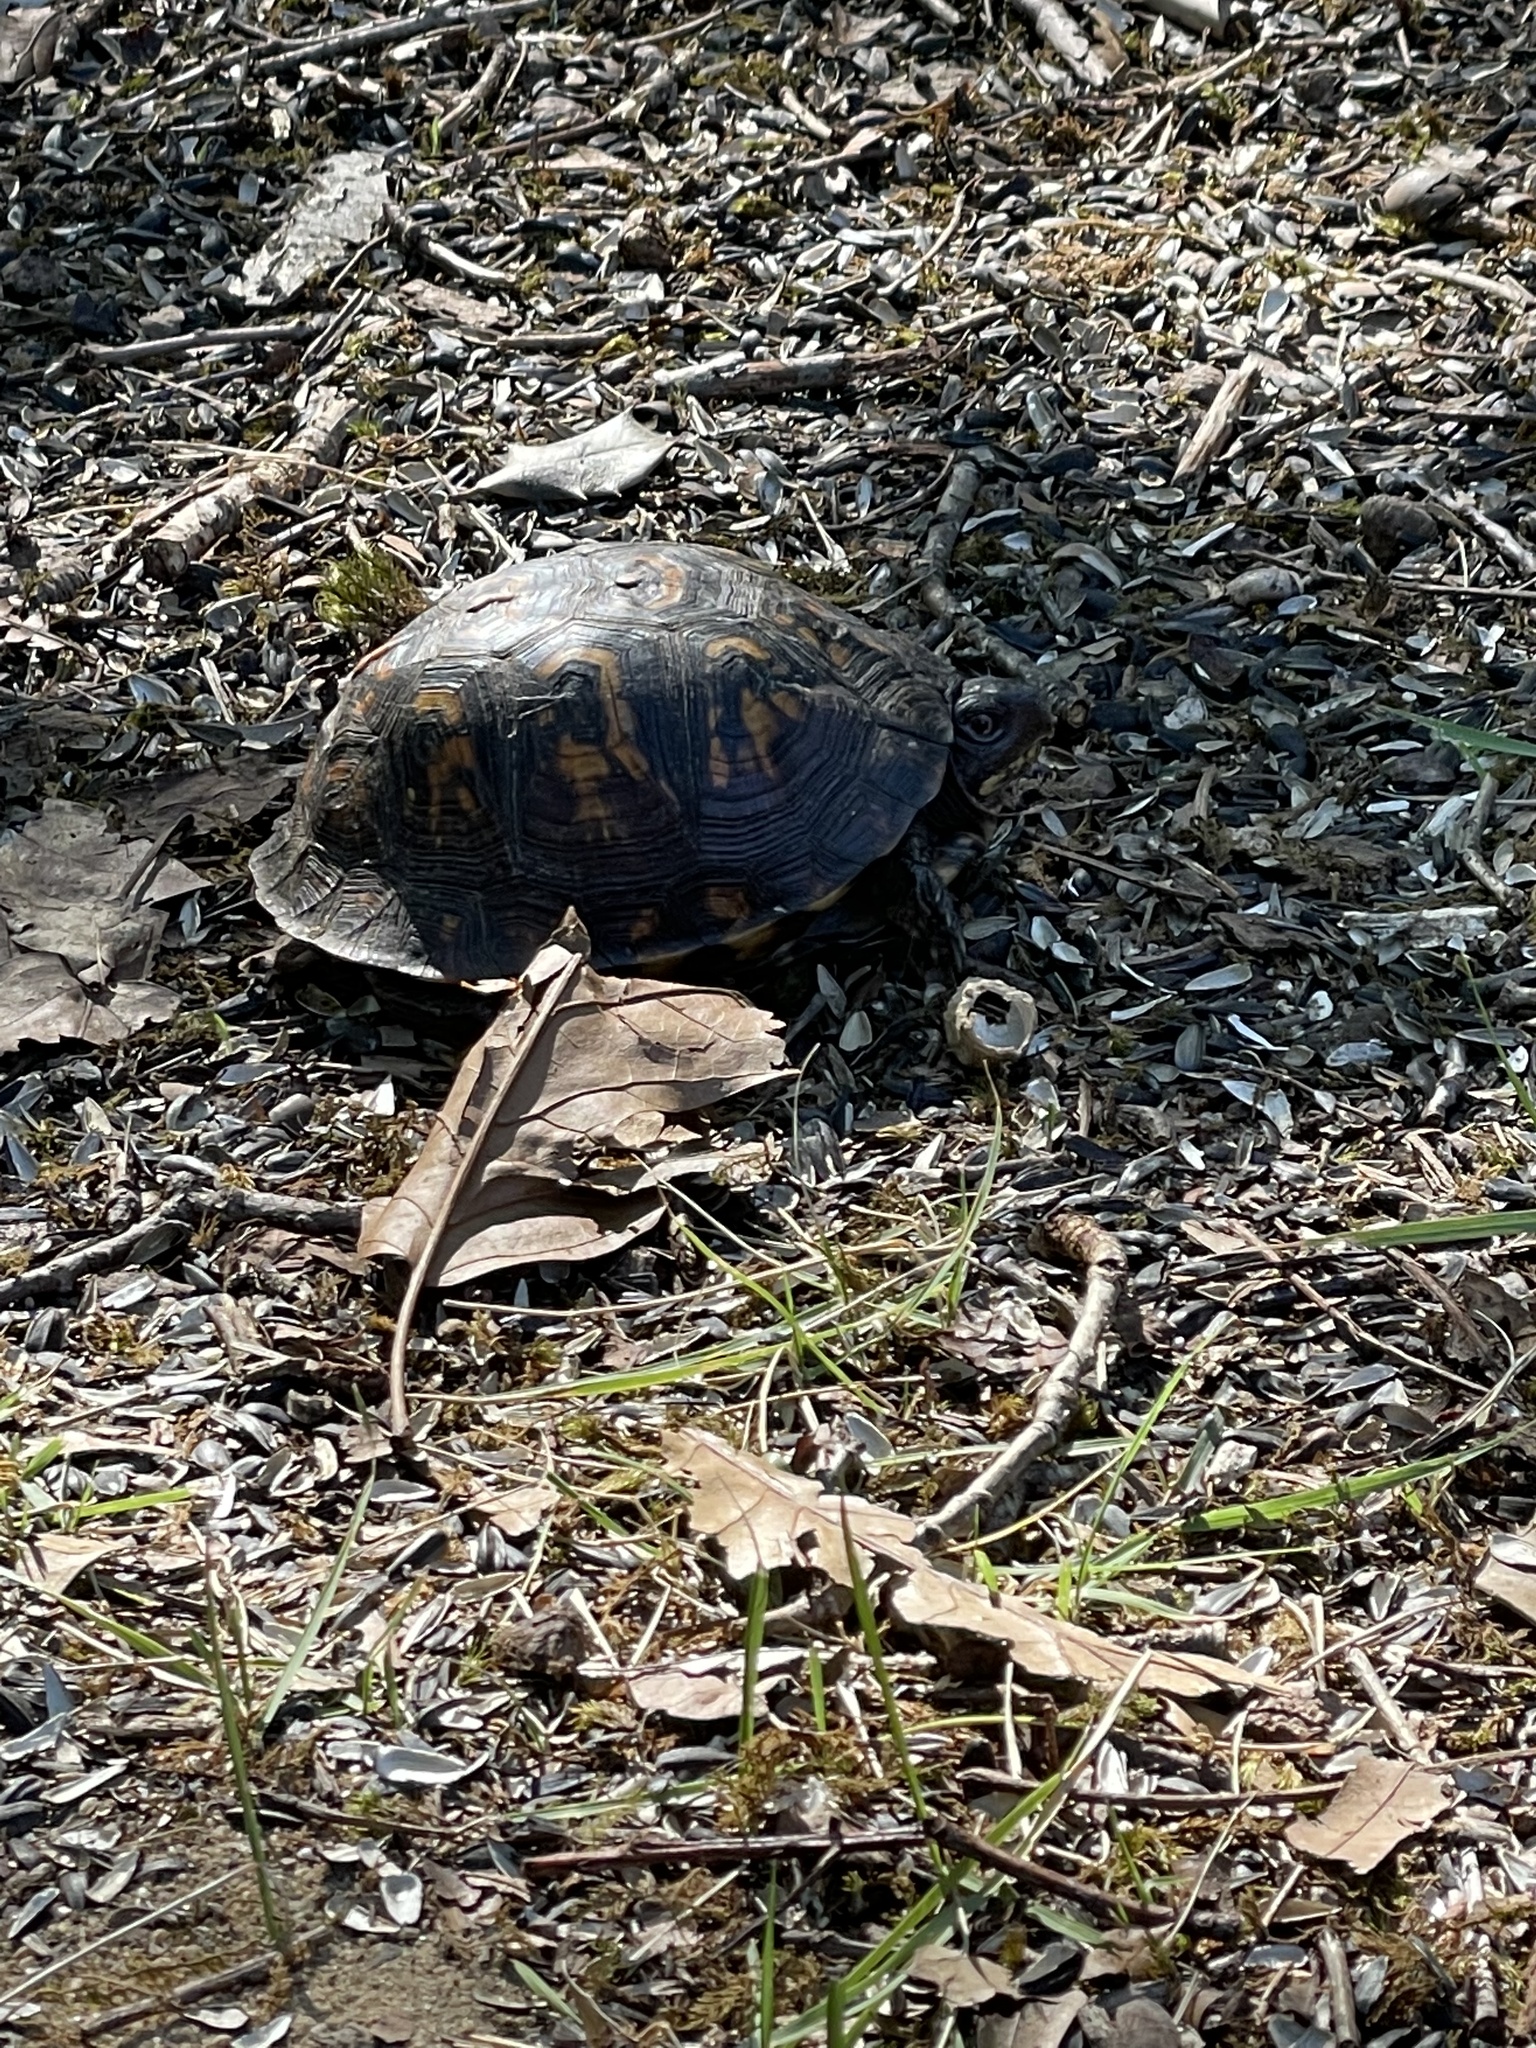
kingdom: Animalia
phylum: Chordata
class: Testudines
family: Emydidae
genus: Terrapene
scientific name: Terrapene carolina
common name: Common box turtle
